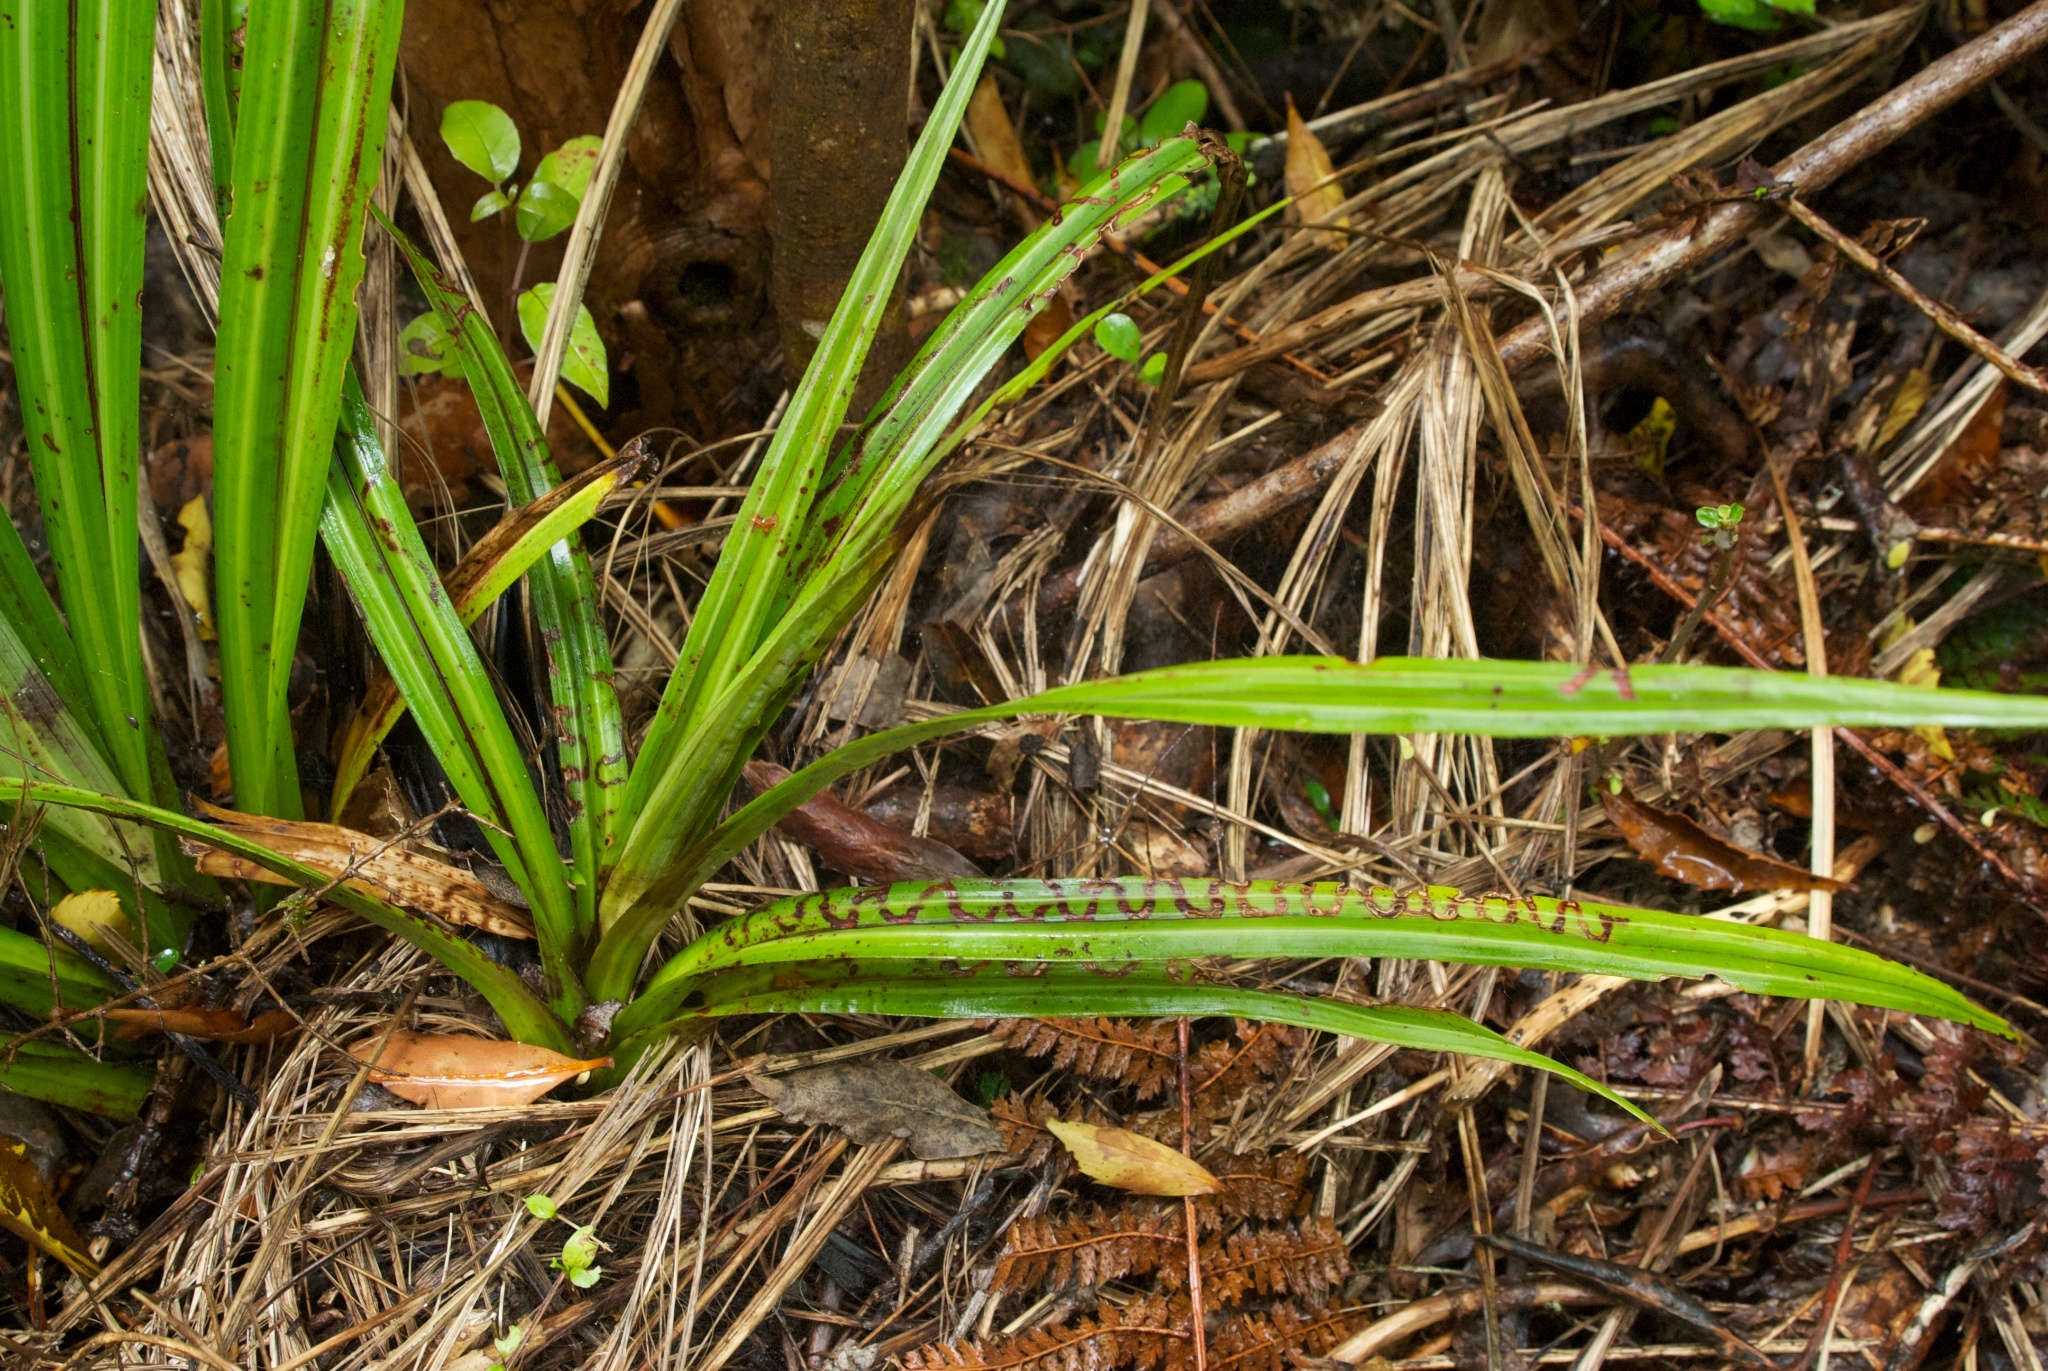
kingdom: Animalia
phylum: Arthropoda
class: Insecta
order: Lepidoptera
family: Plutellidae
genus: Charixena
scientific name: Charixena iridoxa
